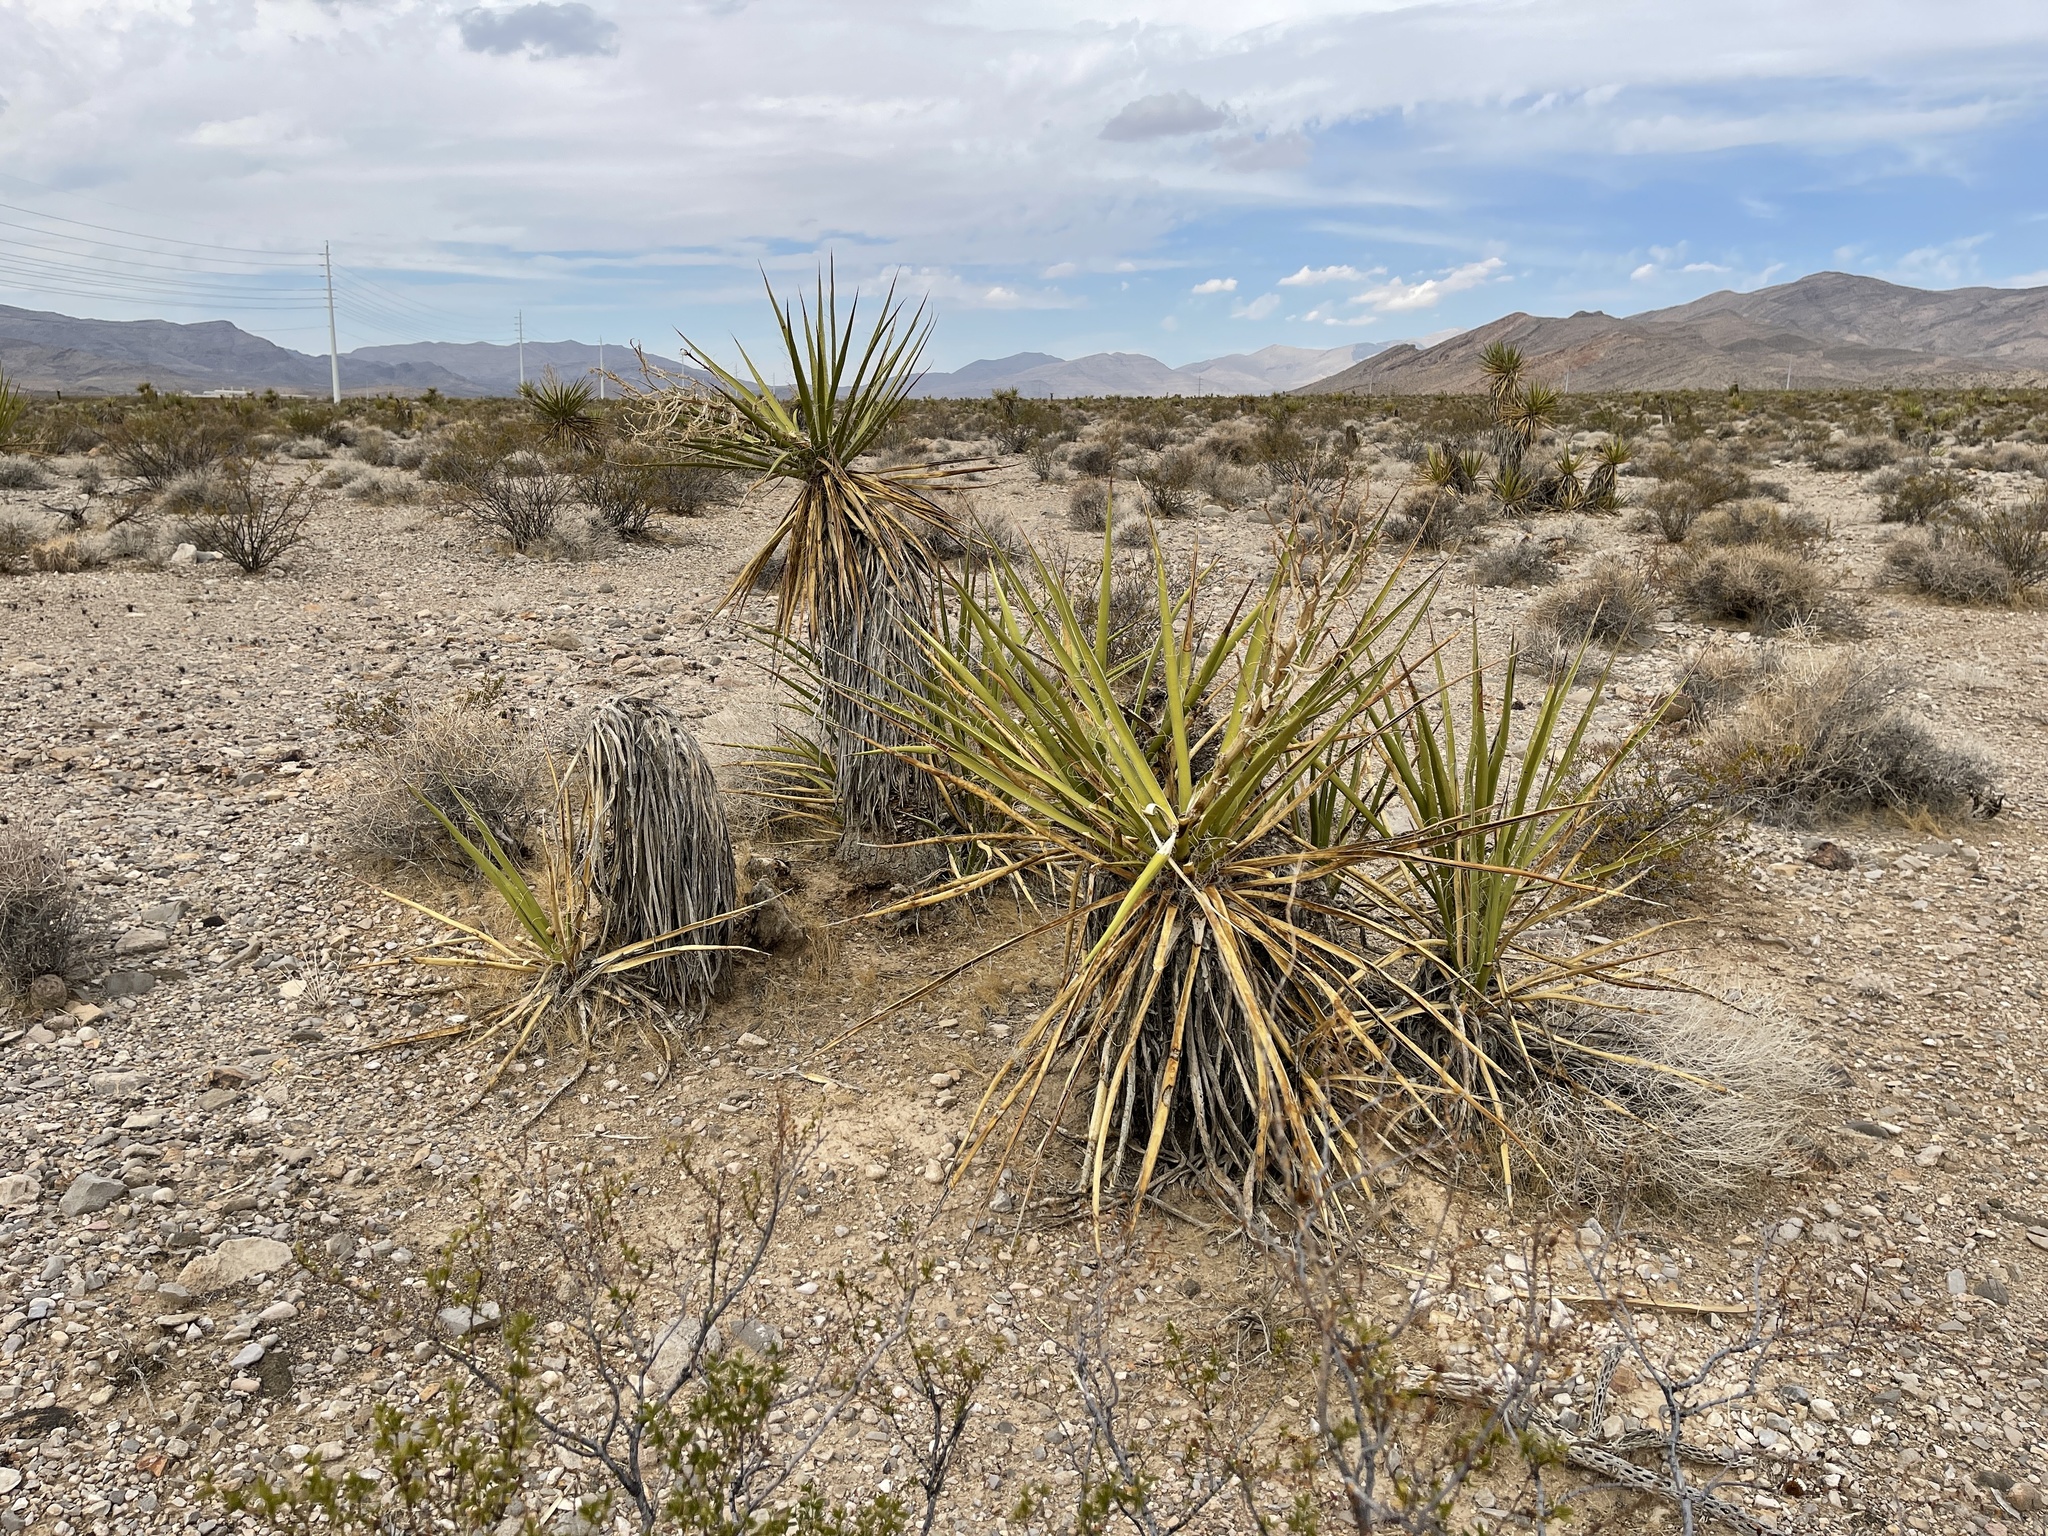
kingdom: Plantae
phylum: Tracheophyta
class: Liliopsida
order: Asparagales
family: Asparagaceae
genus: Yucca
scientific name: Yucca schidigera
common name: Mojave yucca
